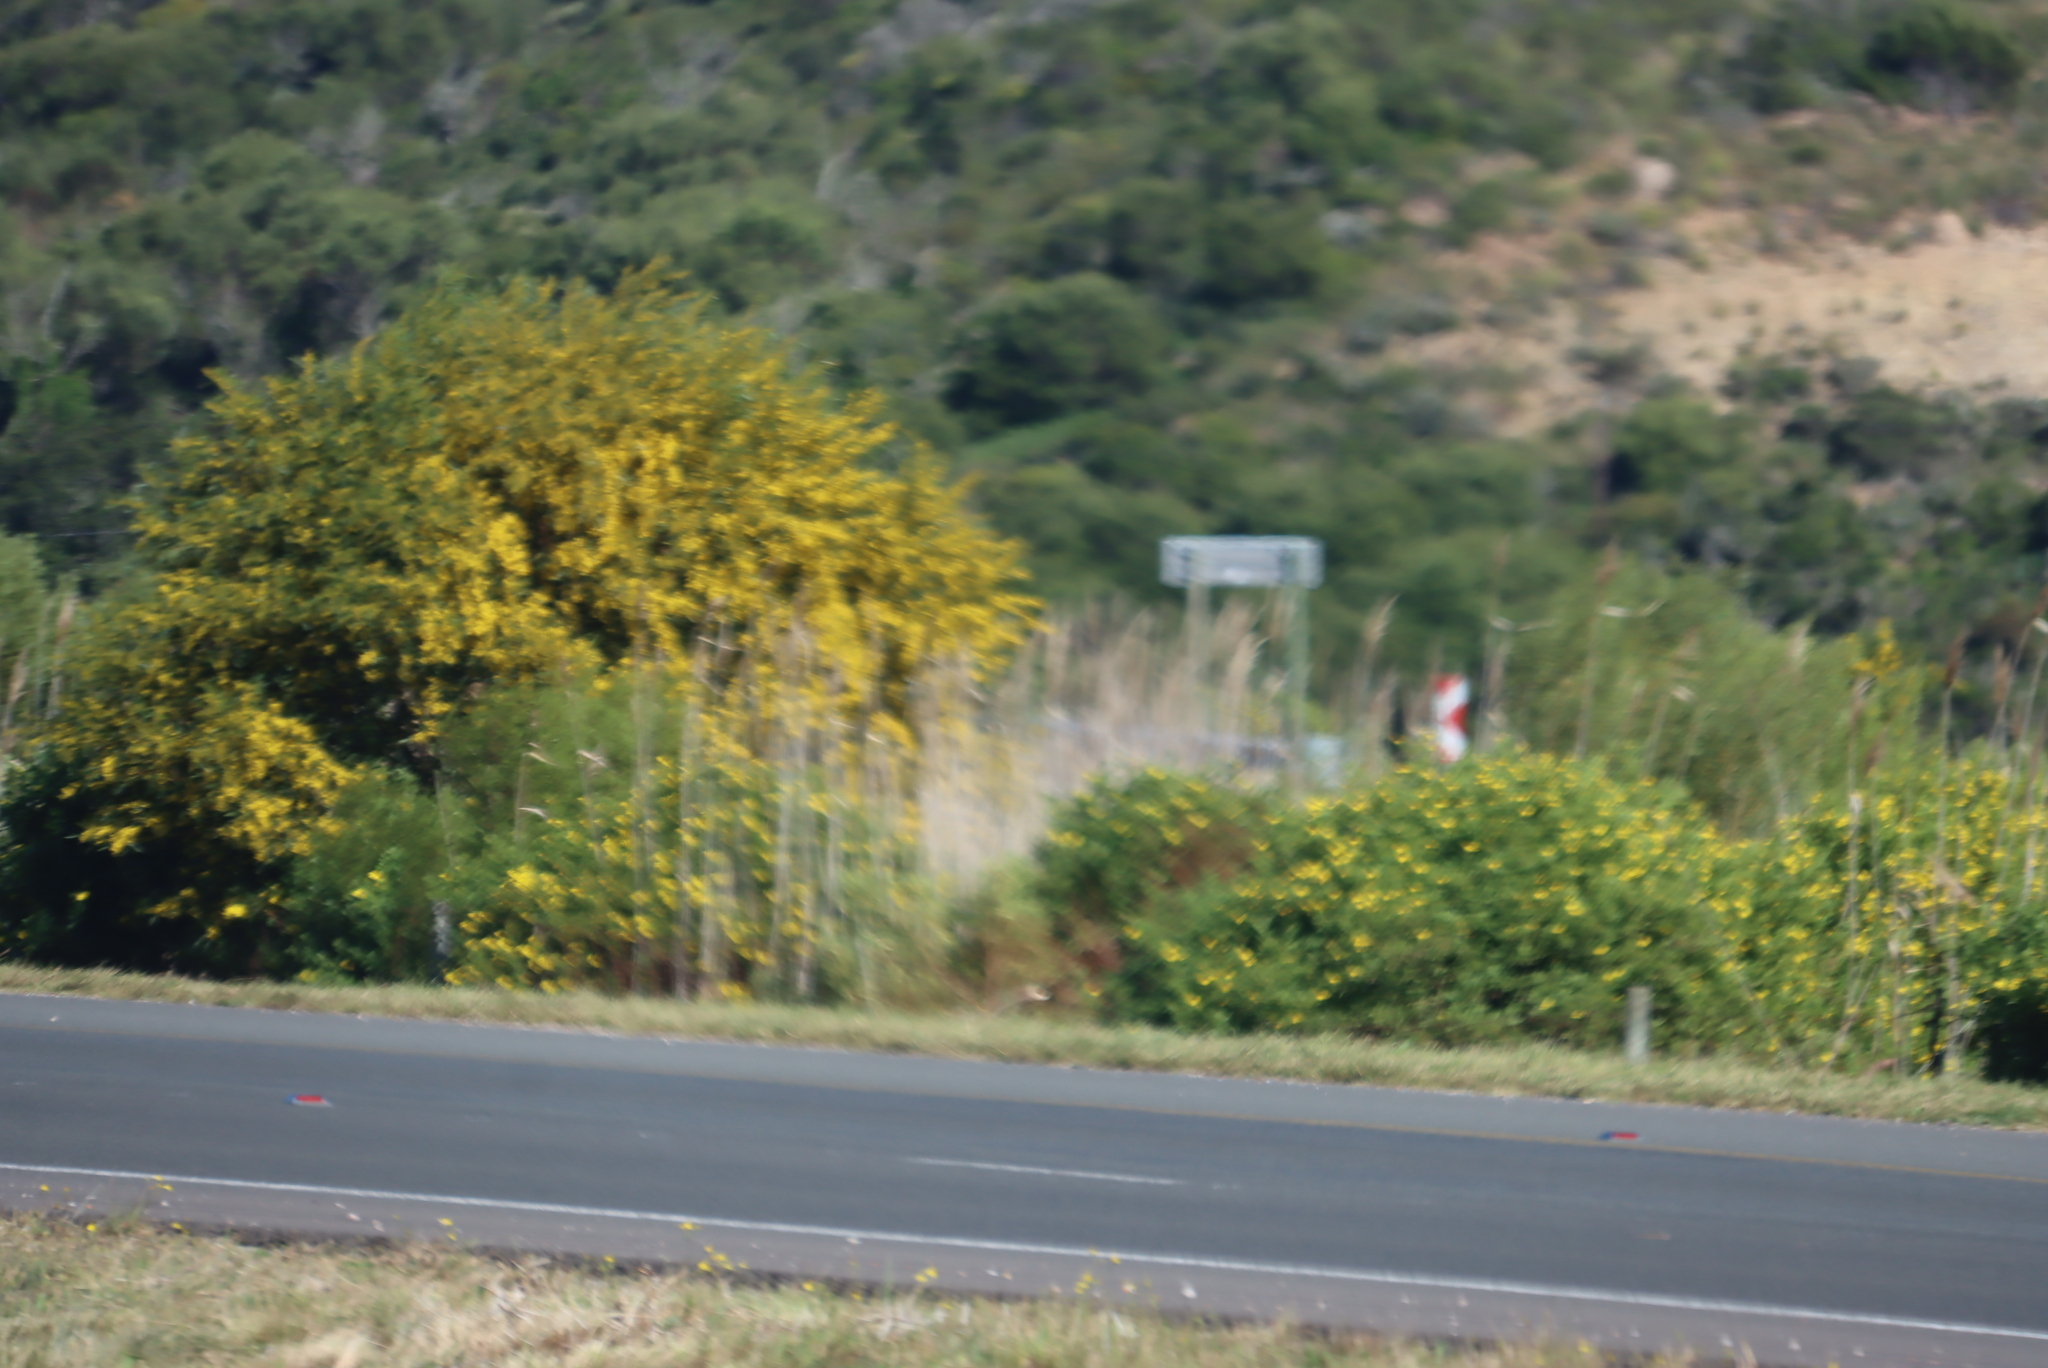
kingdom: Plantae
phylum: Tracheophyta
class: Magnoliopsida
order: Fabales
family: Fabaceae
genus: Acacia
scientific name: Acacia saligna
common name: Orange wattle
